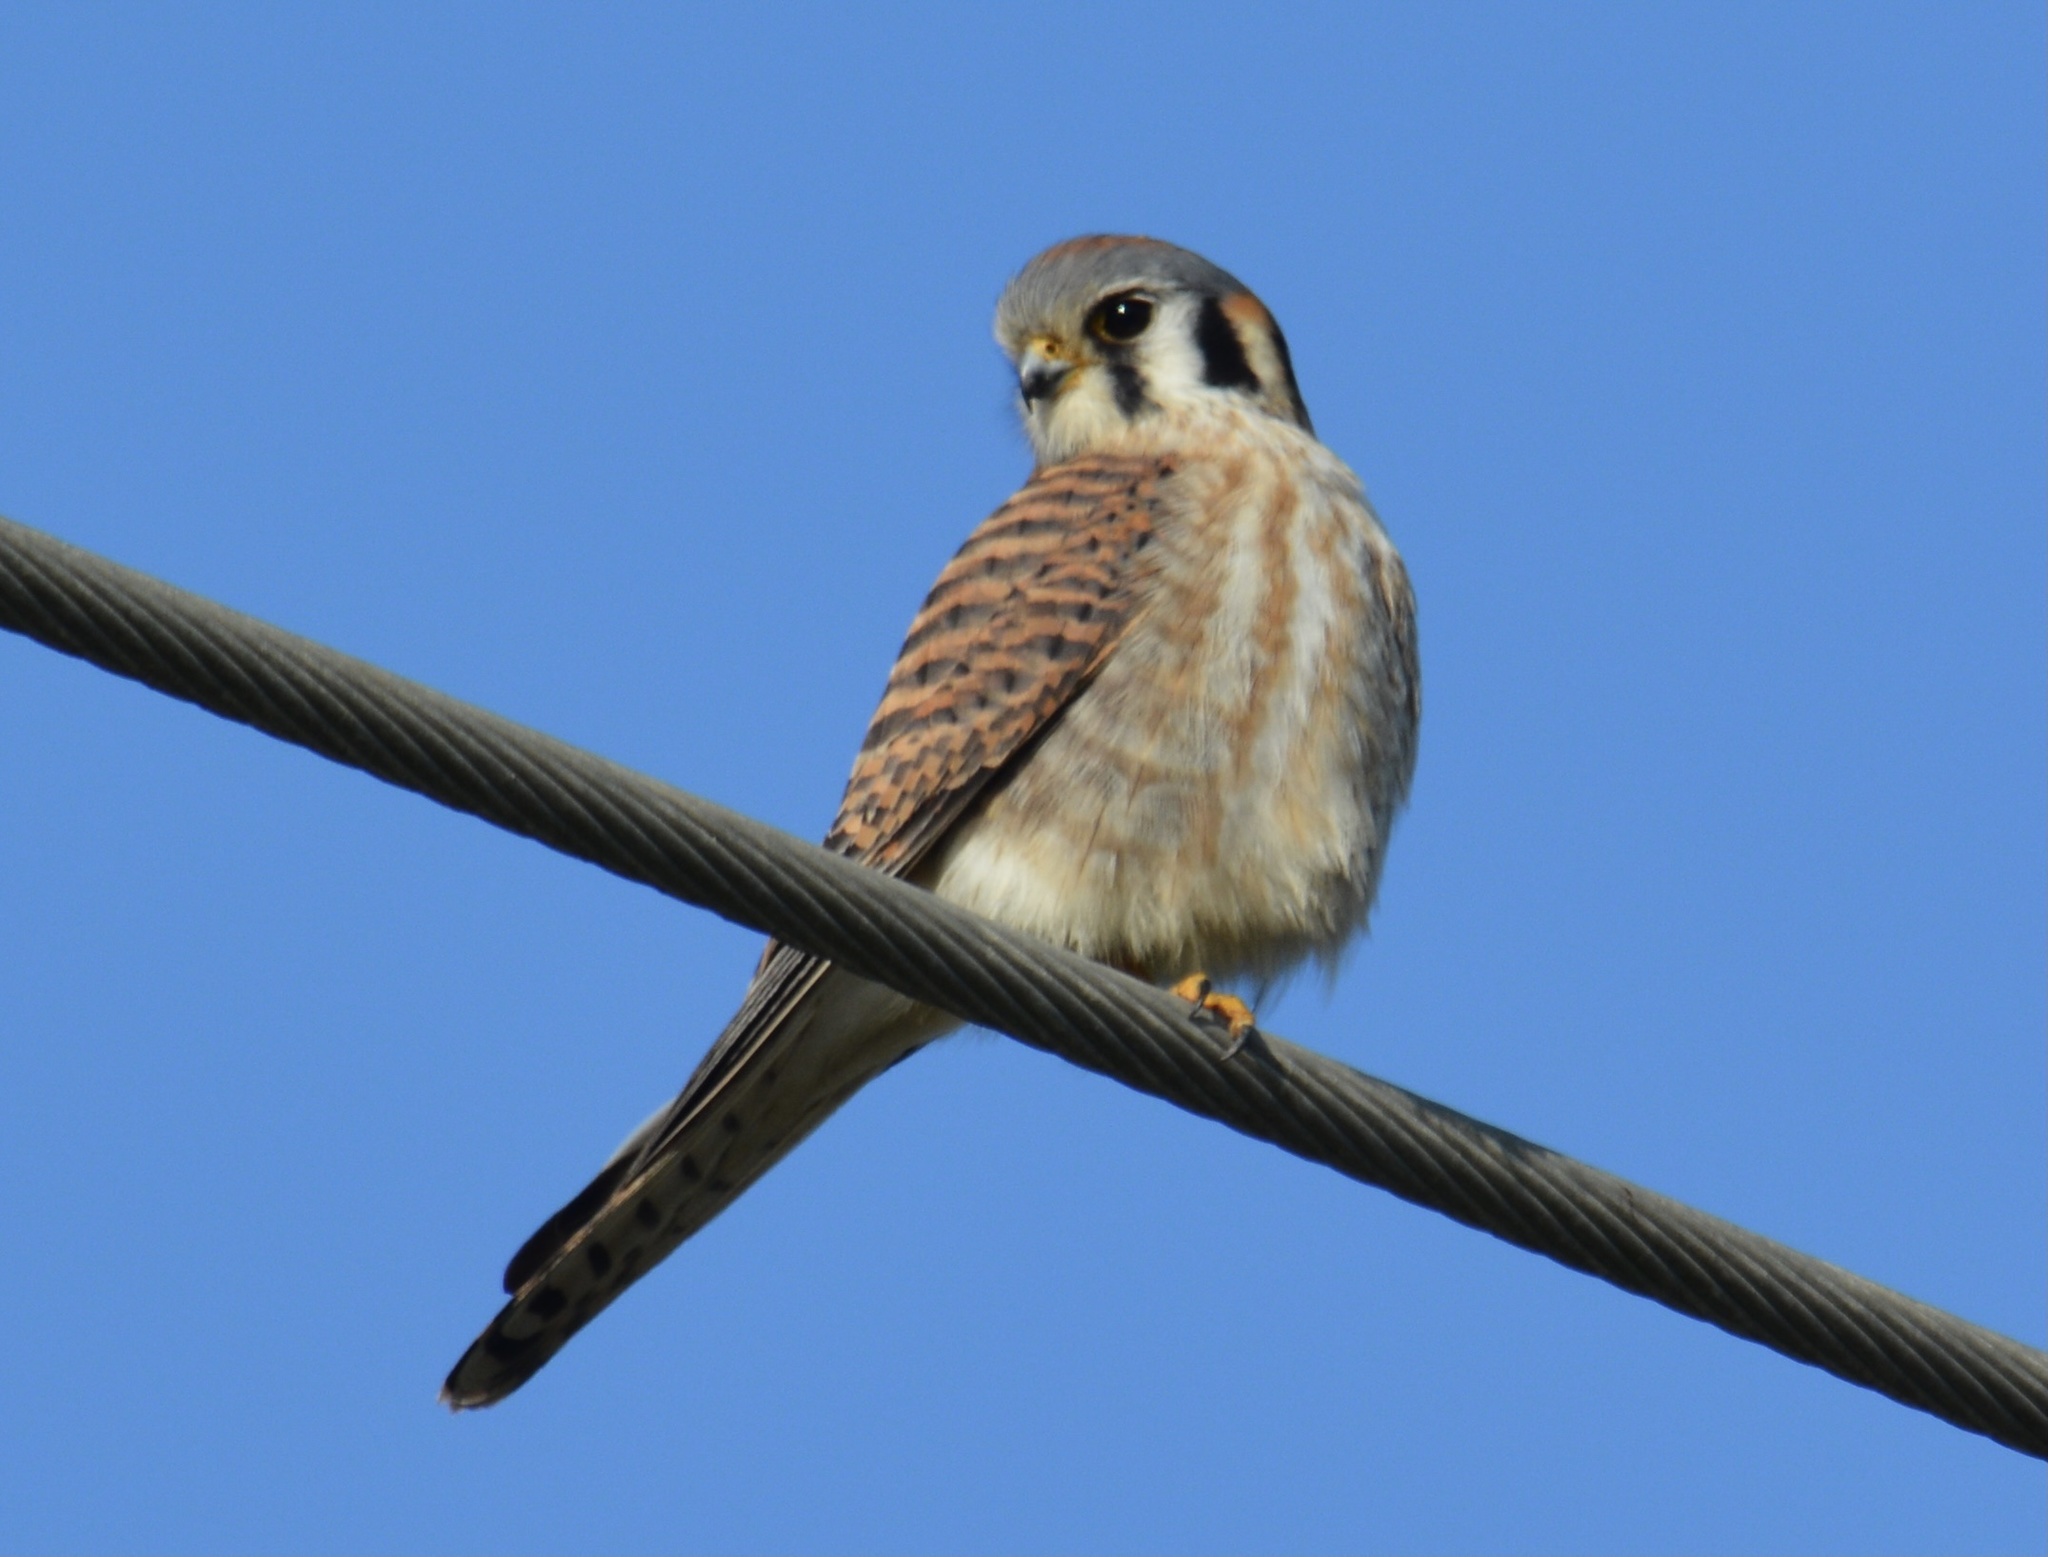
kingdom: Animalia
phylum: Chordata
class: Aves
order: Falconiformes
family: Falconidae
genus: Falco
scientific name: Falco sparverius
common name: American kestrel
